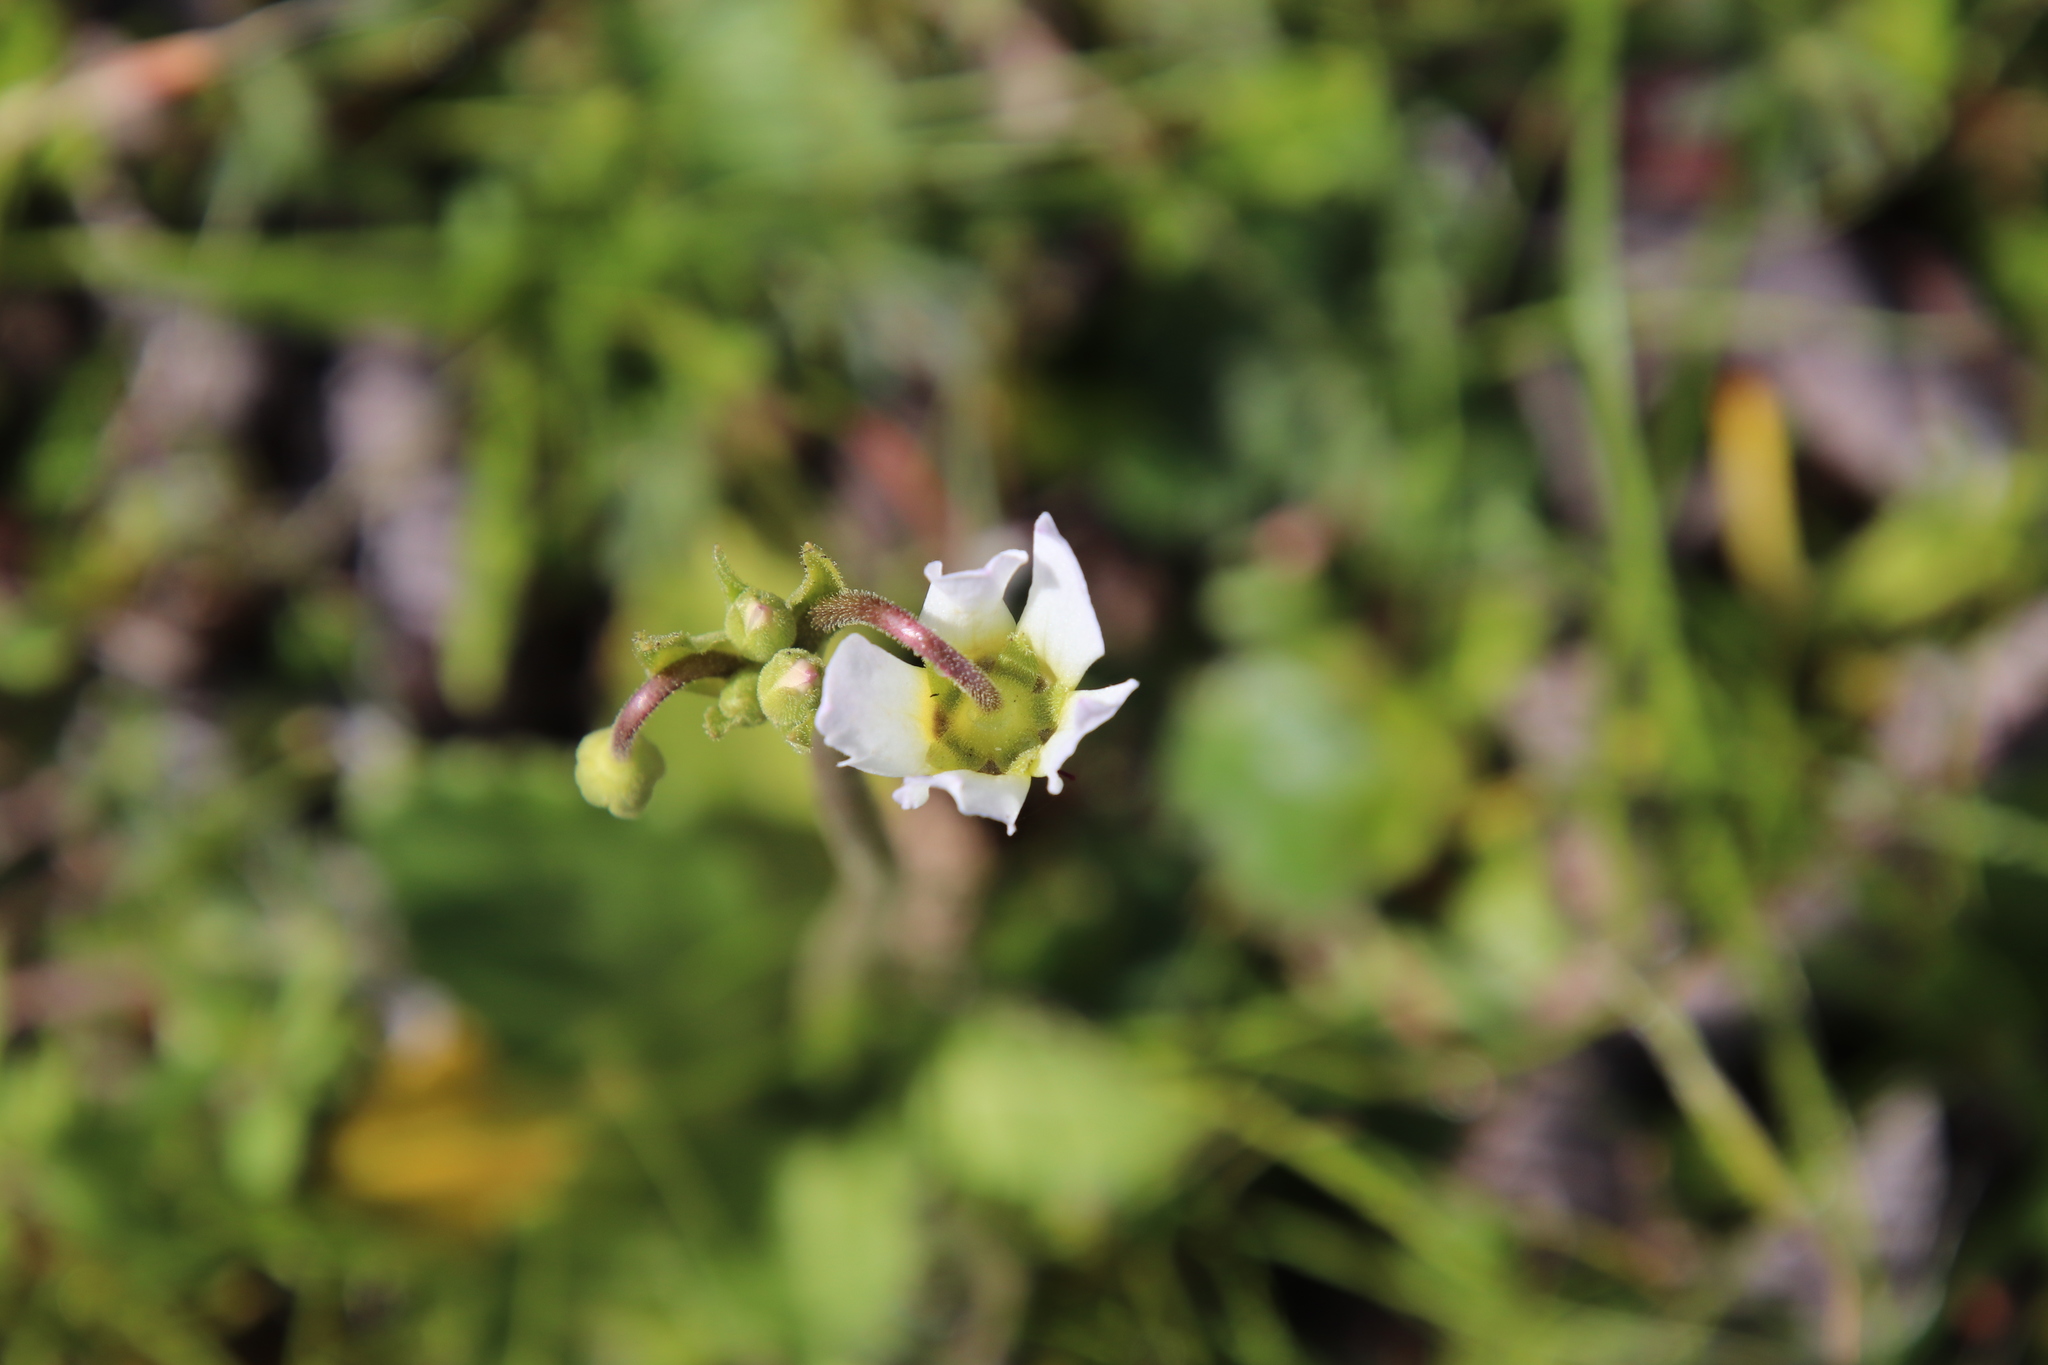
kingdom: Plantae
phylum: Tracheophyta
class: Magnoliopsida
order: Ericales
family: Primulaceae
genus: Dodecatheon
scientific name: Dodecatheon clevelandii
